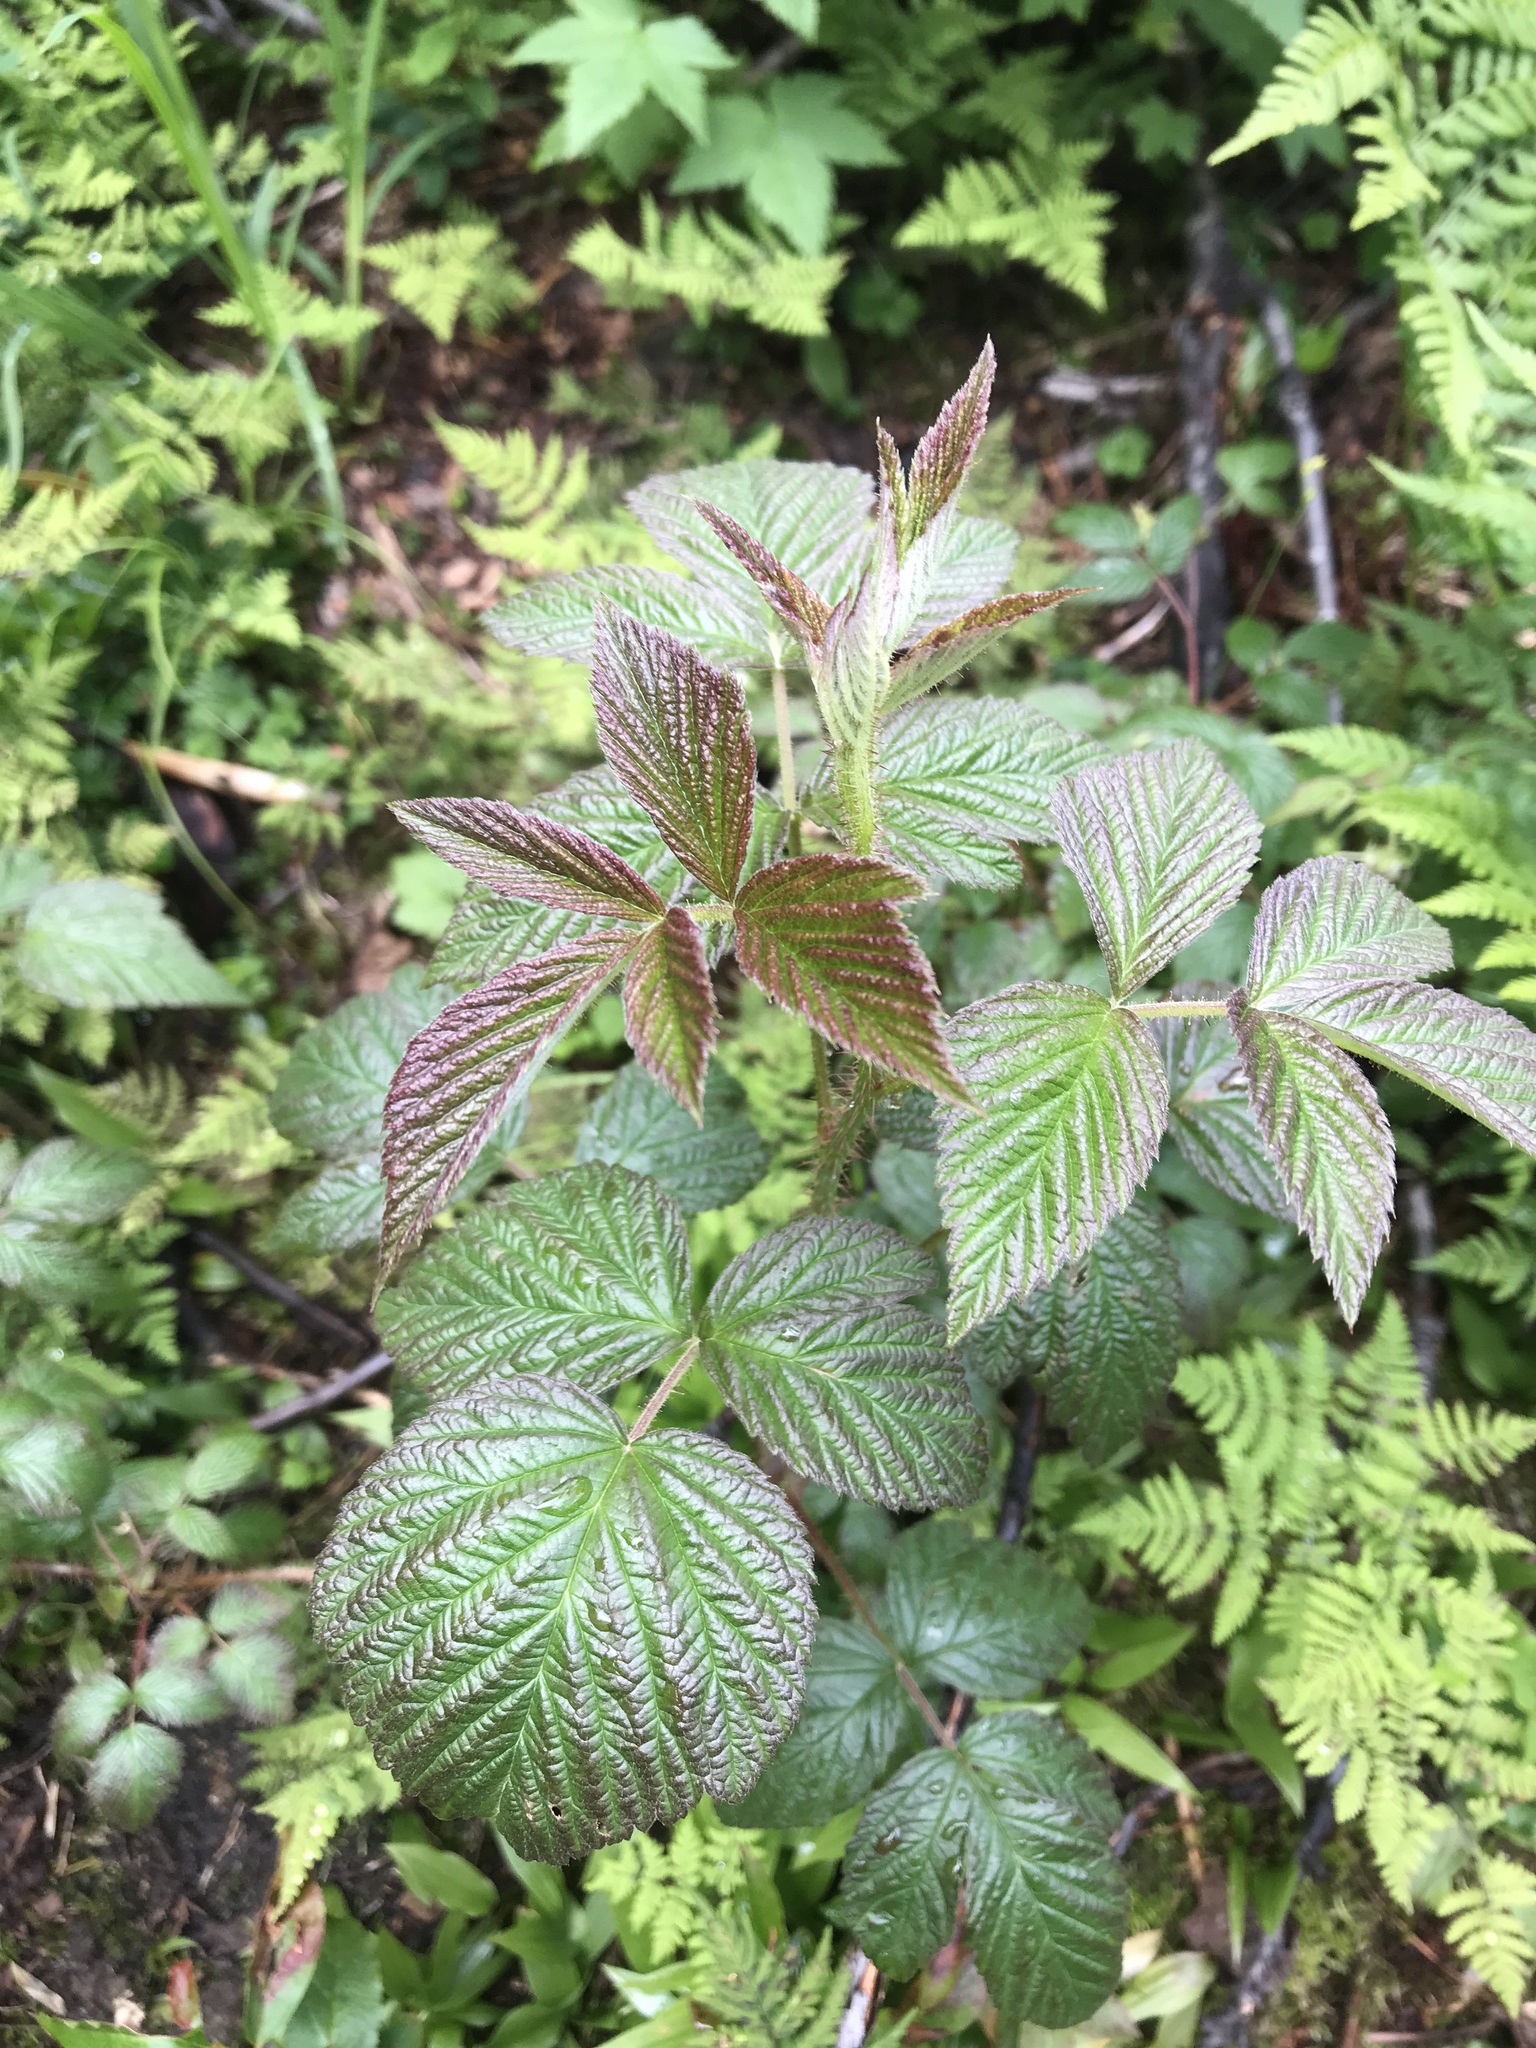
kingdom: Plantae
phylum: Tracheophyta
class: Magnoliopsida
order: Rosales
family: Rosaceae
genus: Rubus
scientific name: Rubus idaeus
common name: Raspberry
